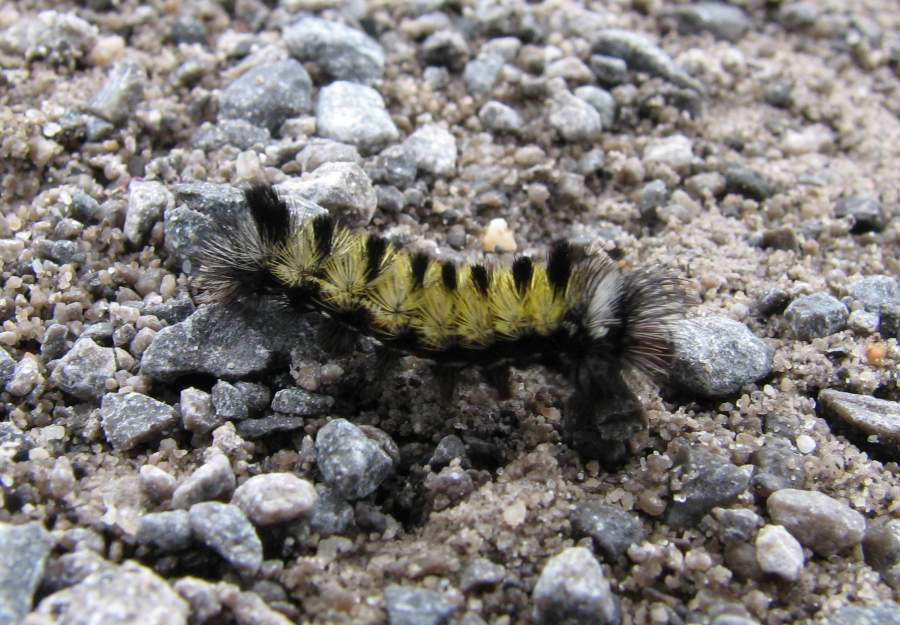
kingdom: Animalia
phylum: Arthropoda
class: Insecta
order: Lepidoptera
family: Erebidae
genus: Ctenucha
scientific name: Ctenucha virginica
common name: Virginia ctenucha moth
